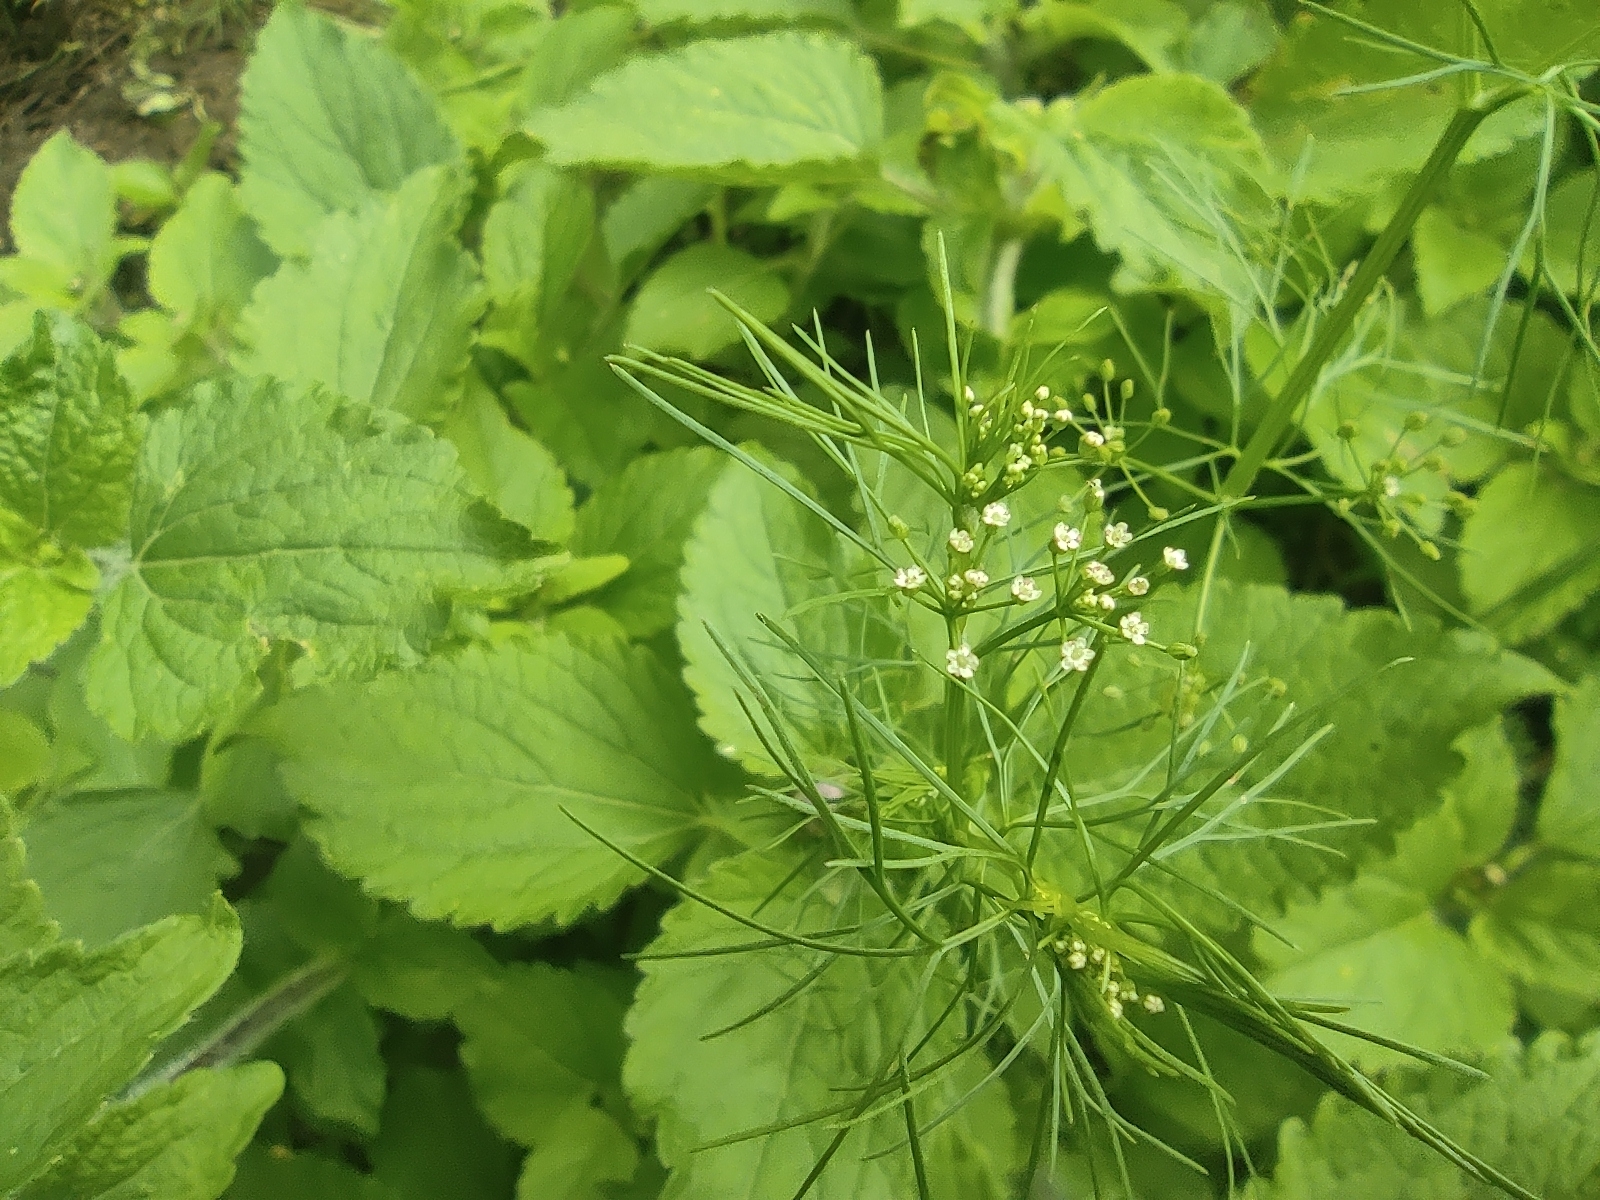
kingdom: Plantae
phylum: Tracheophyta
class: Magnoliopsida
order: Apiales
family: Apiaceae
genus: Cyclospermum
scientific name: Cyclospermum leptophyllum
